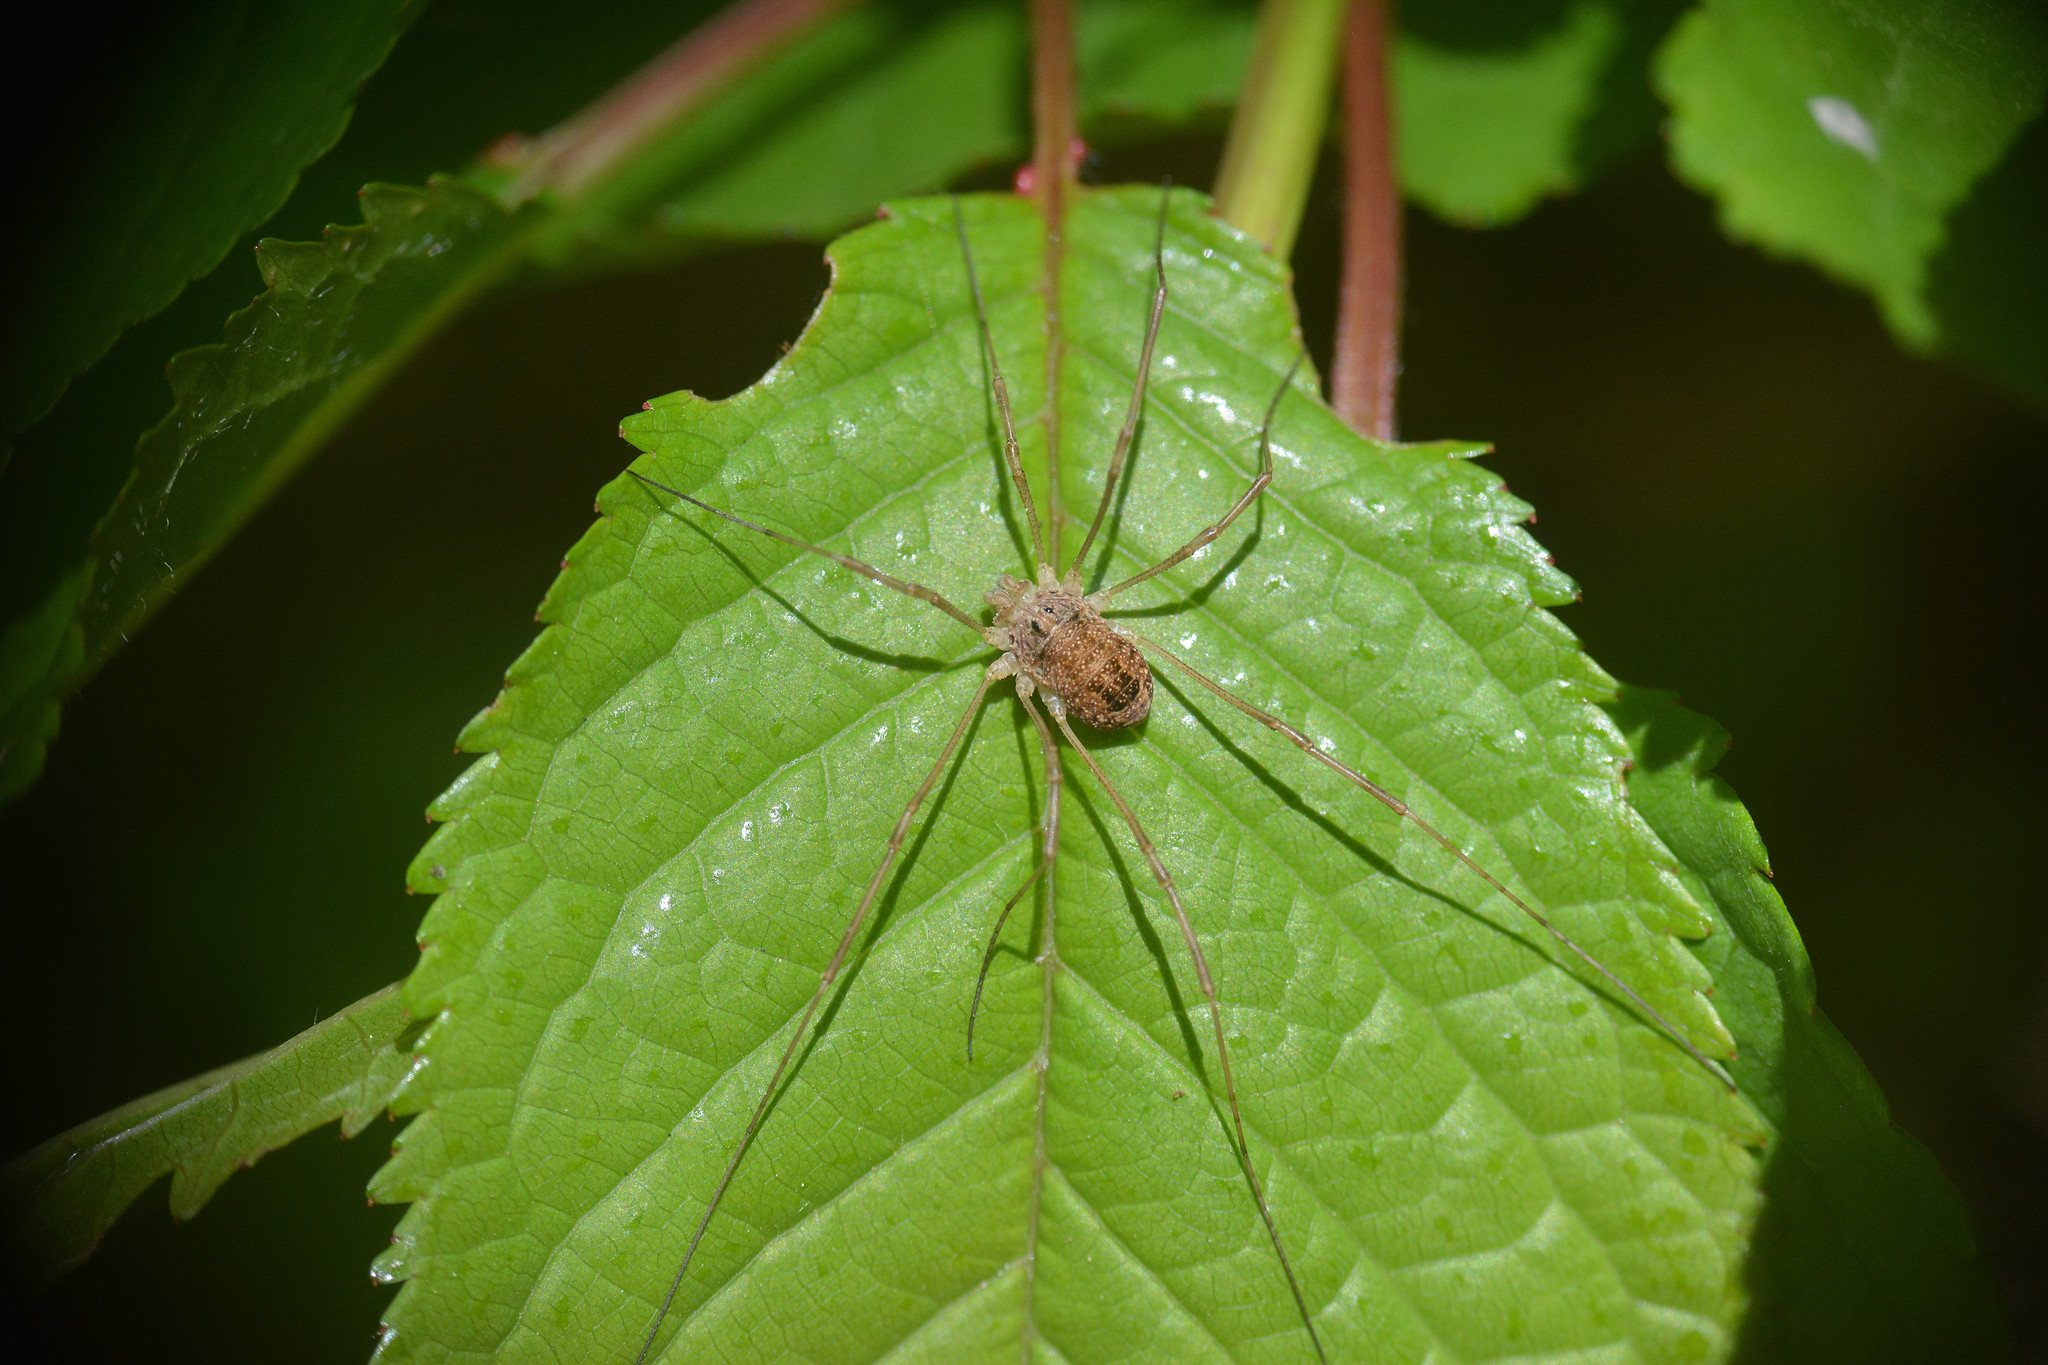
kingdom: Animalia
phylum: Arthropoda
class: Arachnida
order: Opiliones
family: Phalangiidae
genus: Rilaena
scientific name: Rilaena triangularis
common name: Spring harvestman
